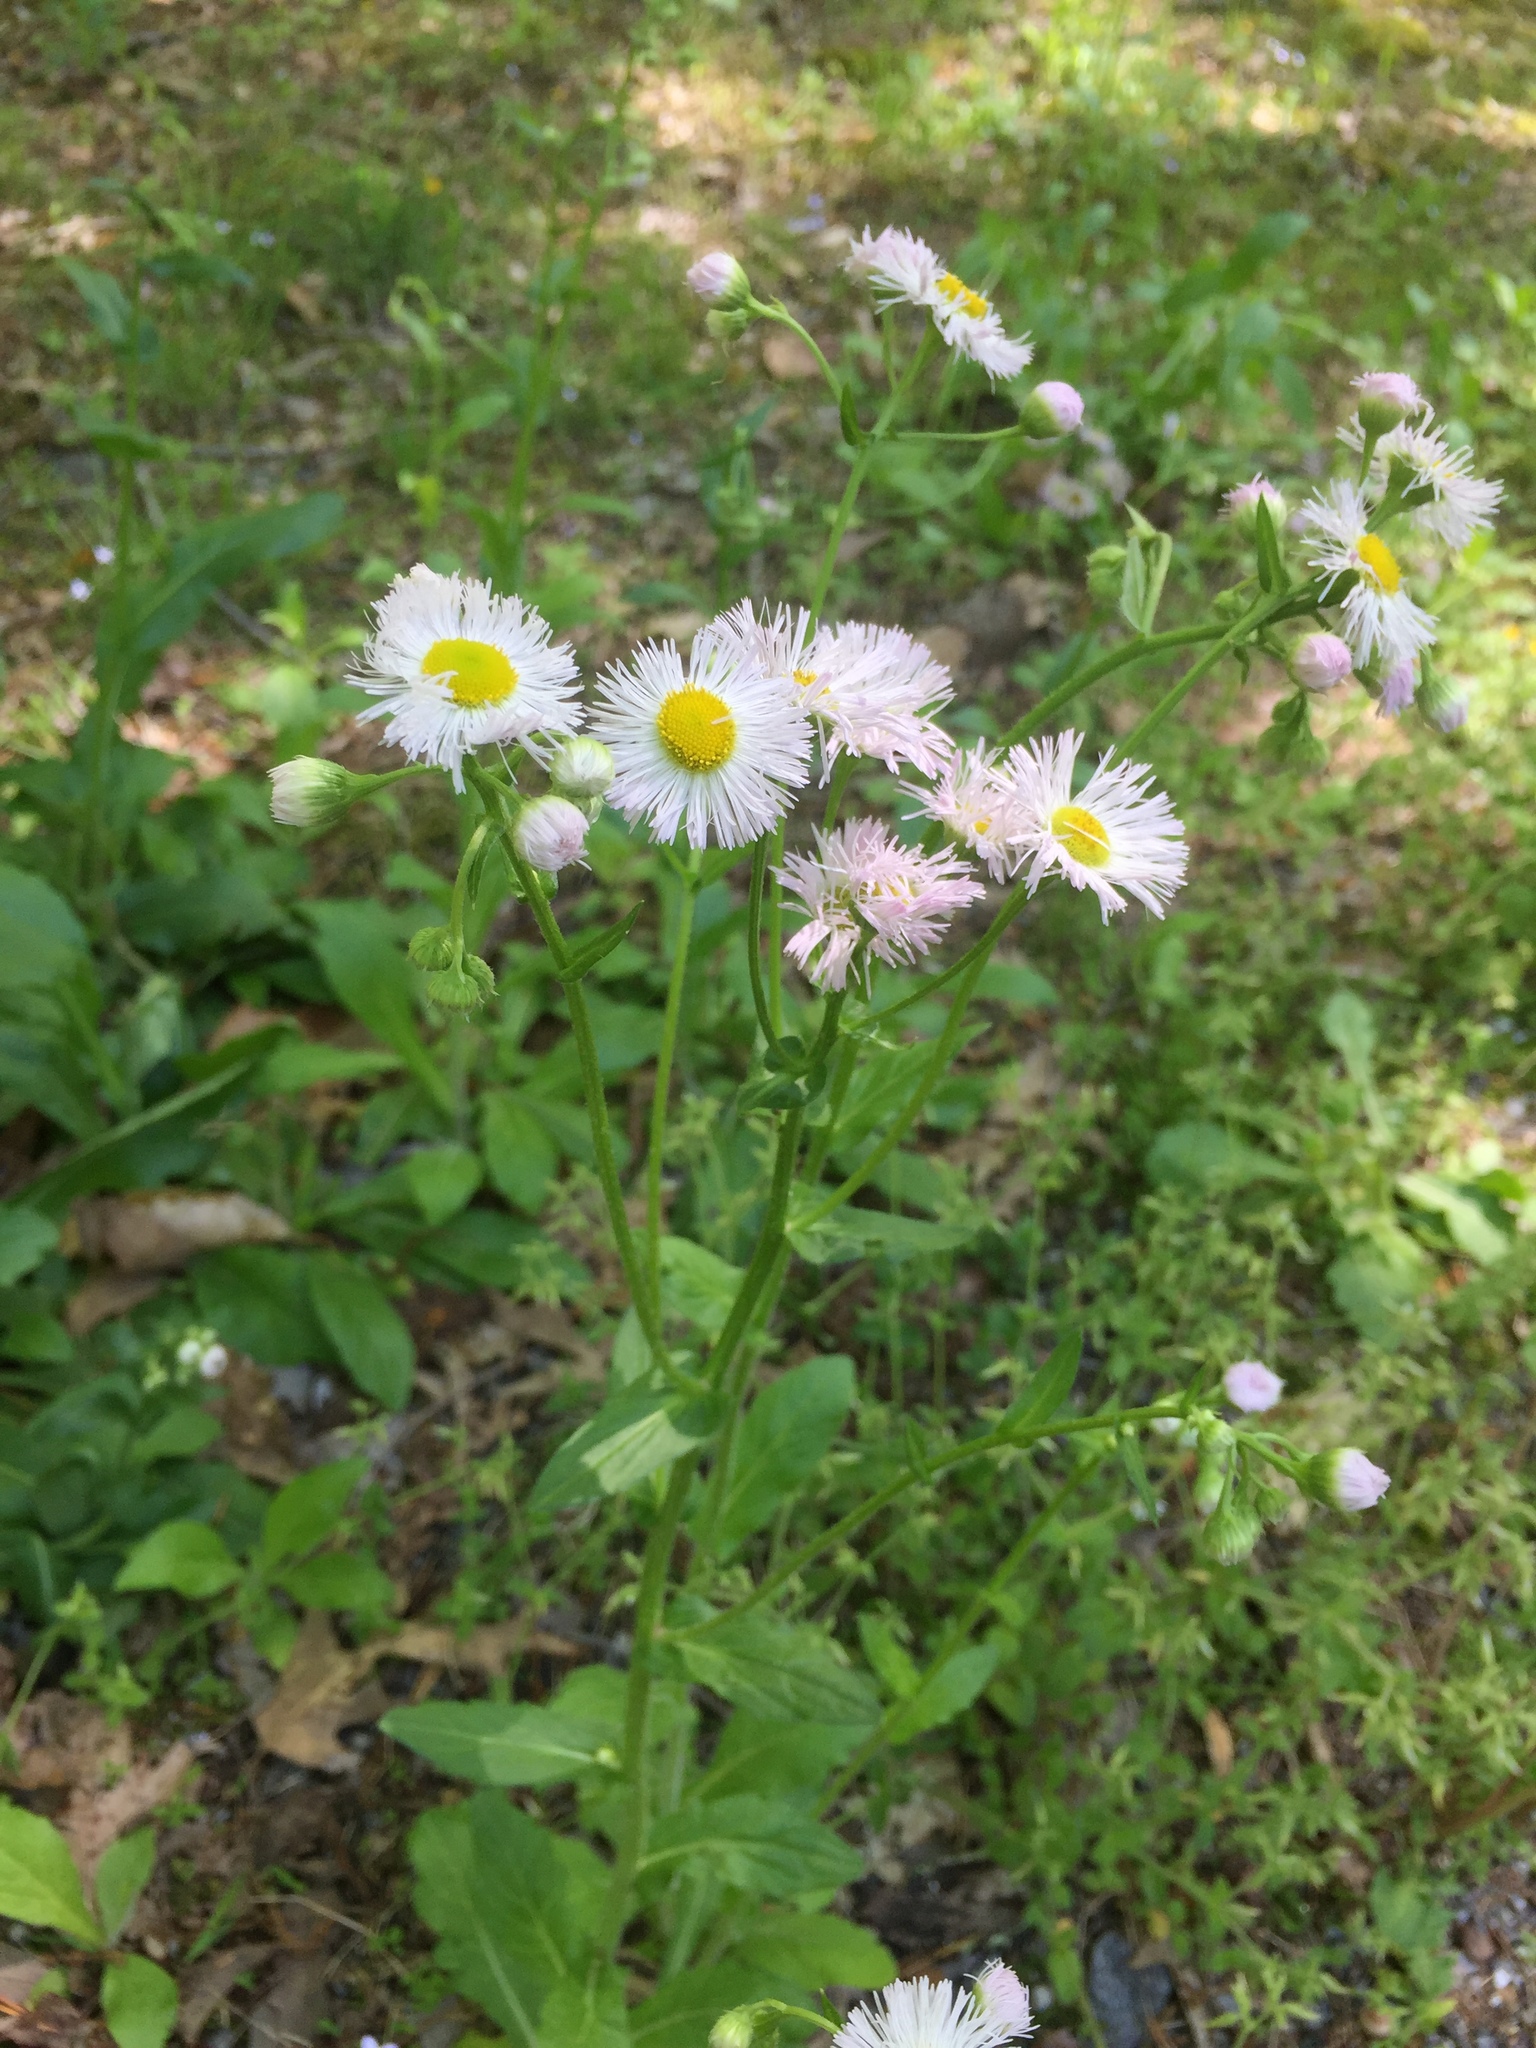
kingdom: Plantae
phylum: Tracheophyta
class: Magnoliopsida
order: Asterales
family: Asteraceae
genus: Erigeron
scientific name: Erigeron philadelphicus
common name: Robin's-plantain
